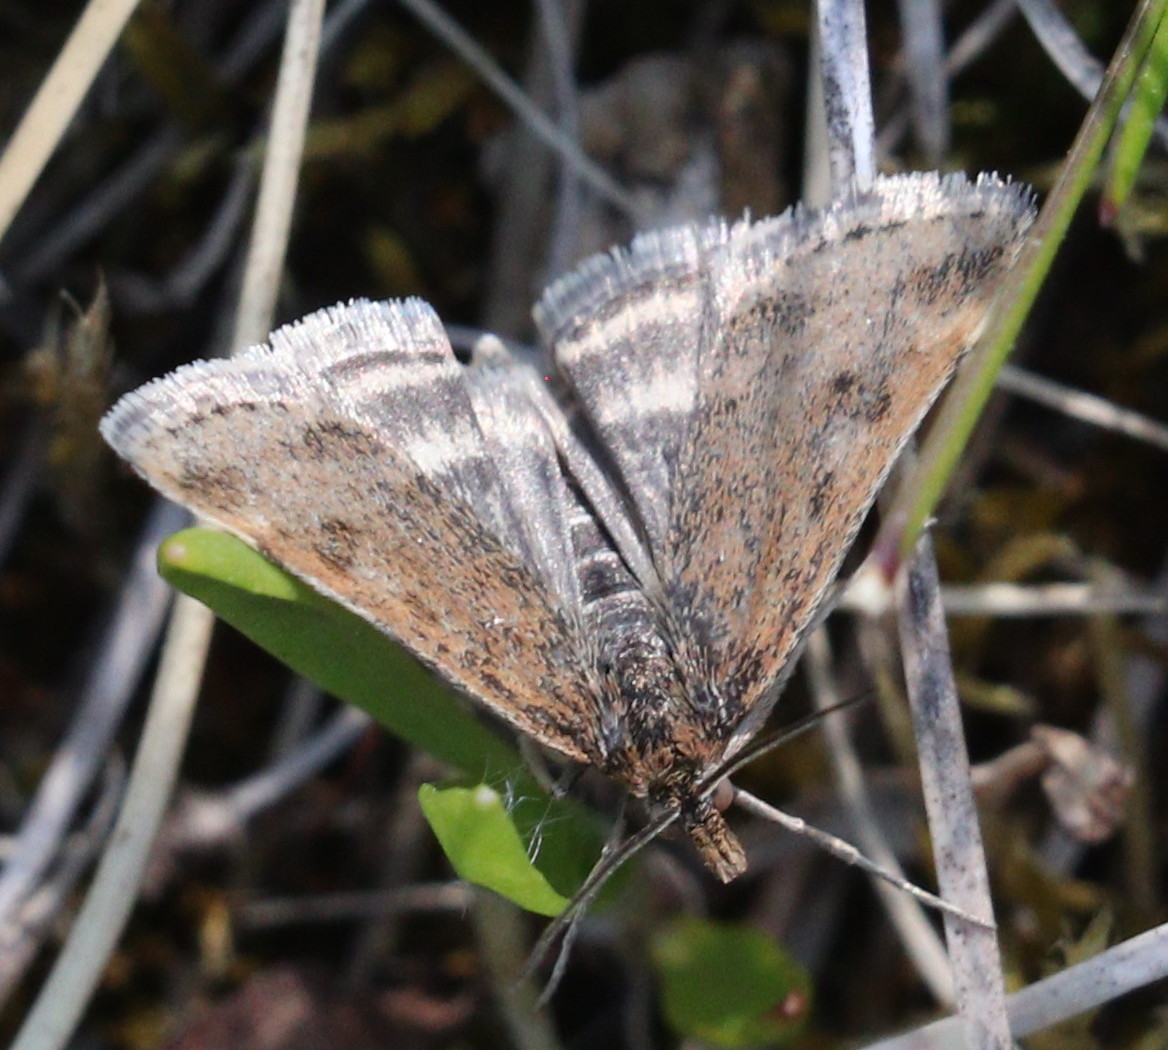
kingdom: Animalia
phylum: Arthropoda
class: Insecta
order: Lepidoptera
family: Crambidae
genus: Pyrausta
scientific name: Pyrausta despicata
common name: Straw-barred pearl
